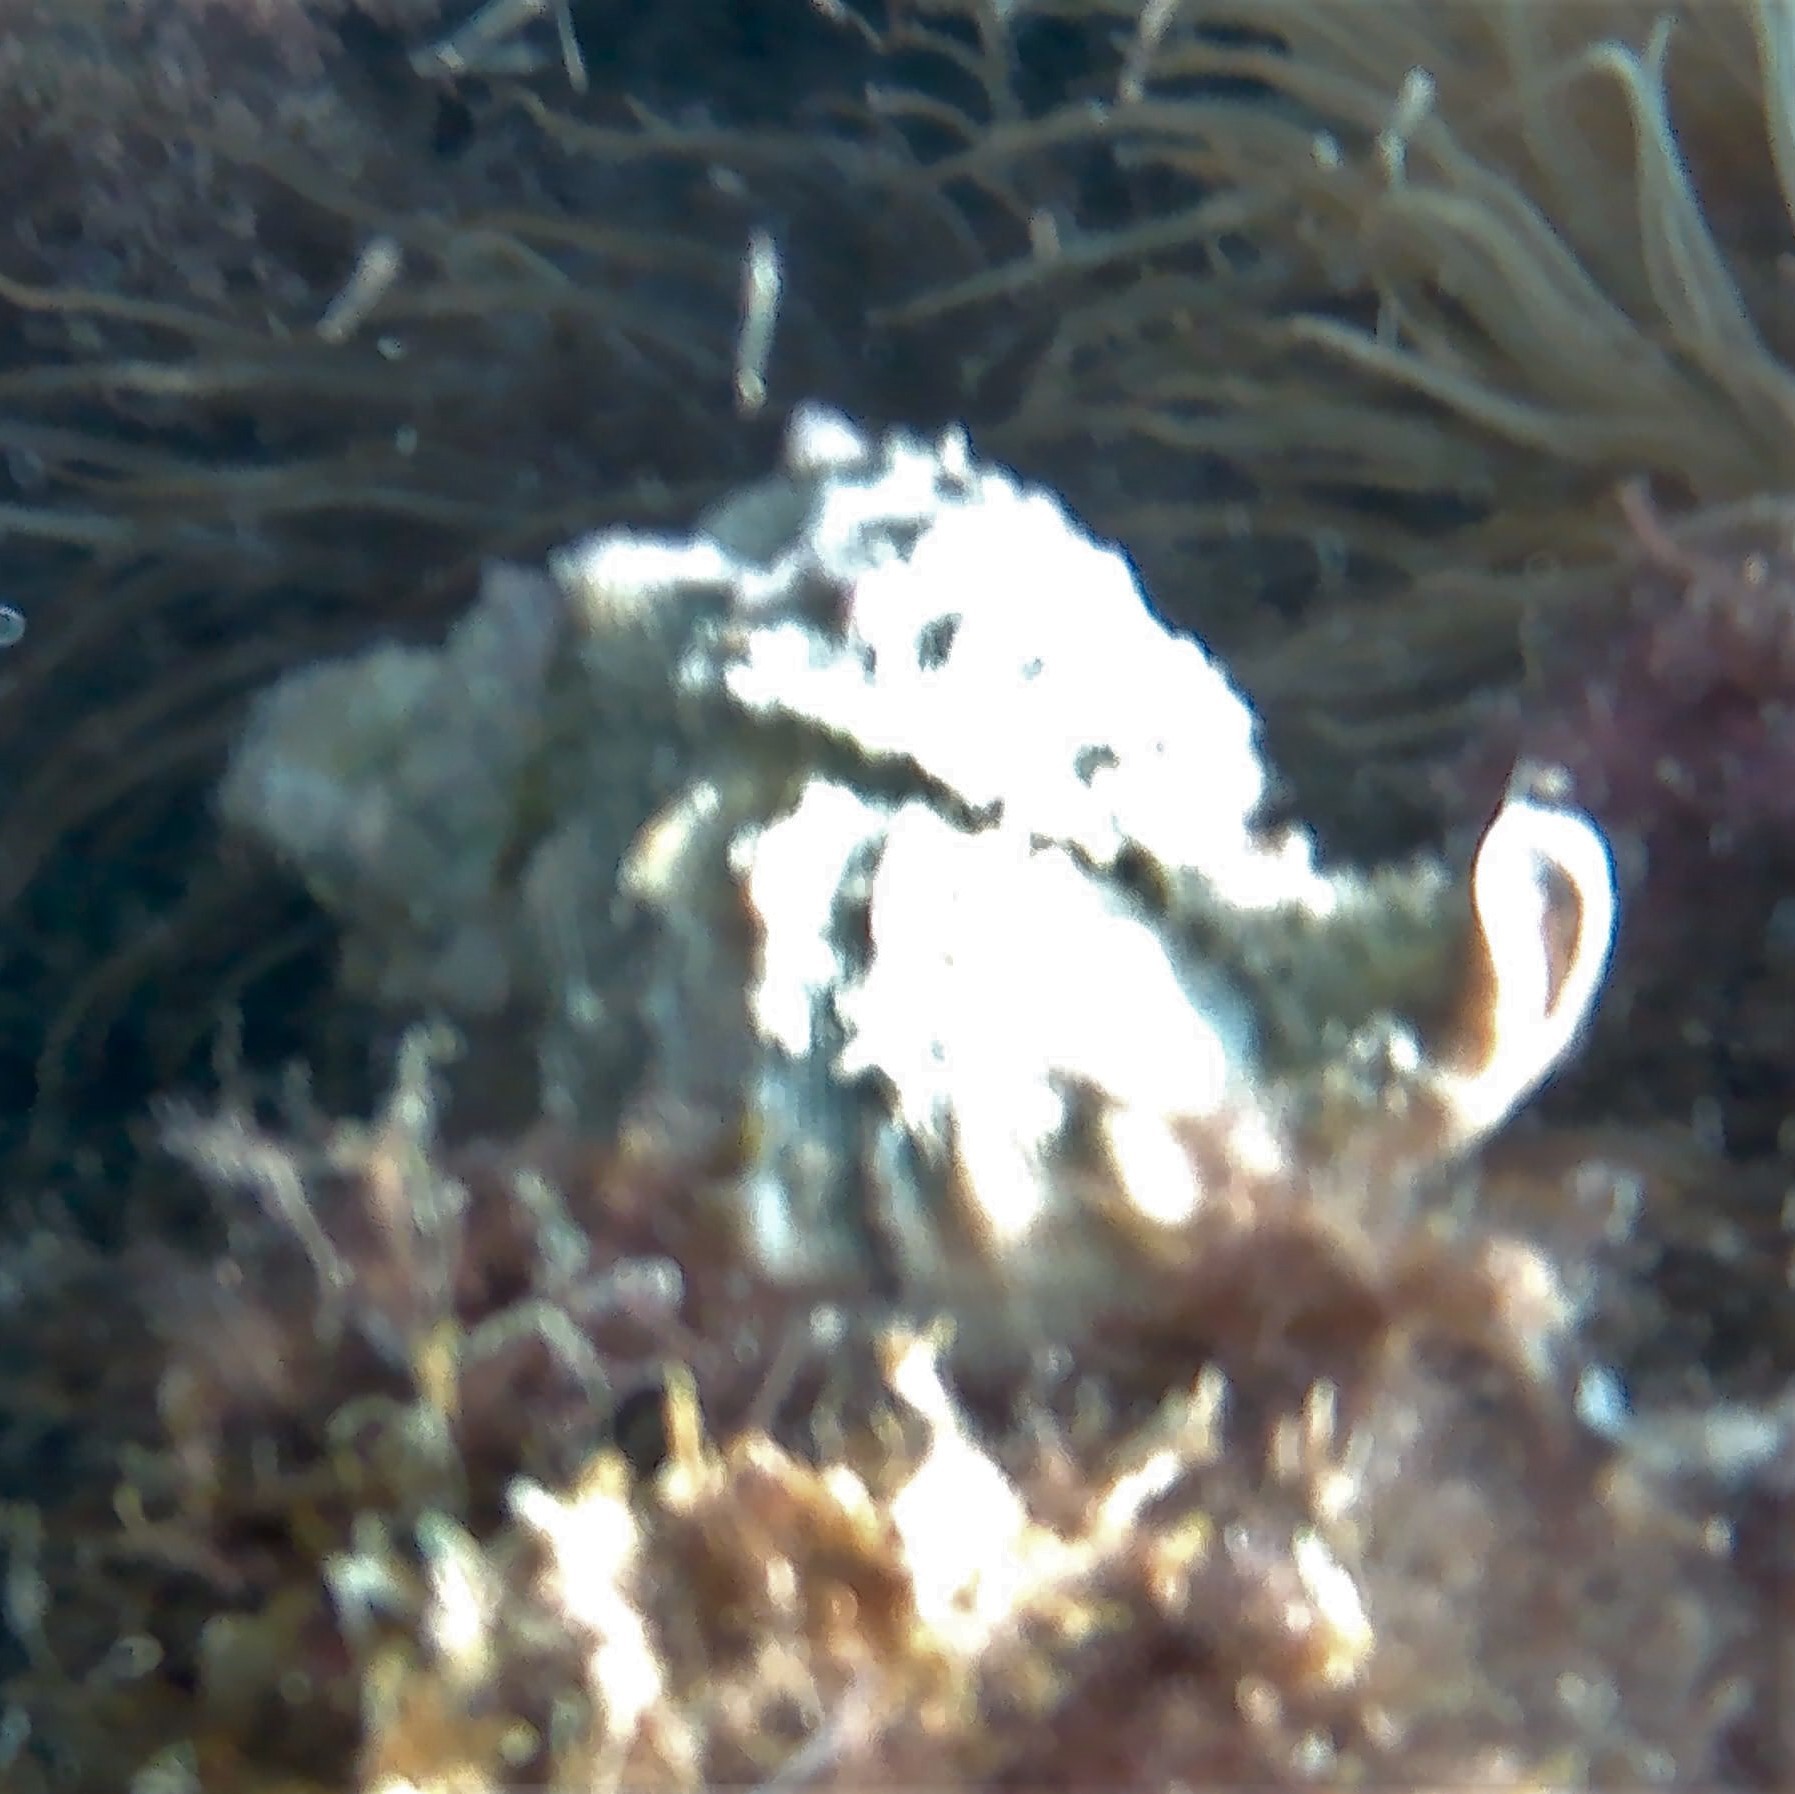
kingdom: Animalia
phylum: Mollusca
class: Gastropoda
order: Neogastropoda
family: Muricidae
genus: Hexaplex
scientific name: Hexaplex trunculus
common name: Banded dye-murex
